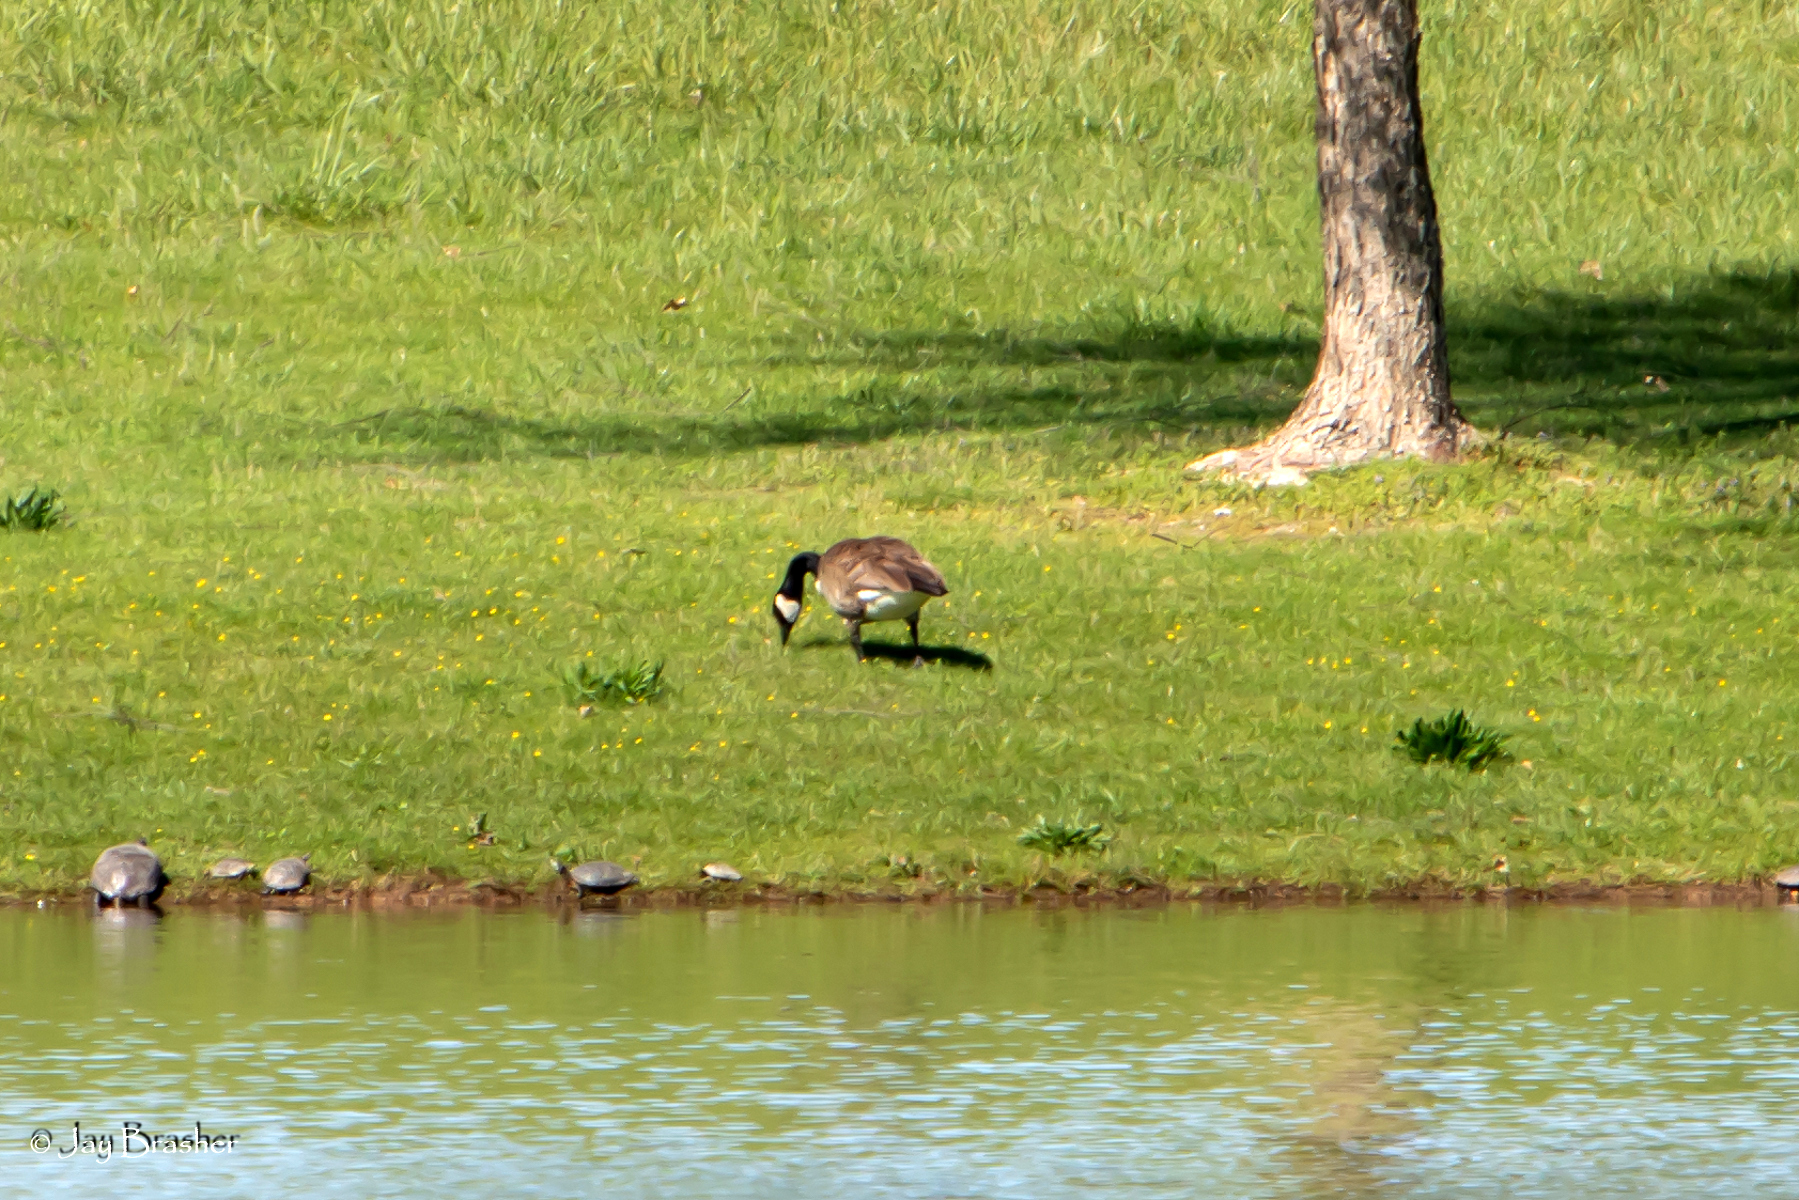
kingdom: Animalia
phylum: Chordata
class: Aves
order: Anseriformes
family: Anatidae
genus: Branta
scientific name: Branta canadensis
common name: Canada goose
